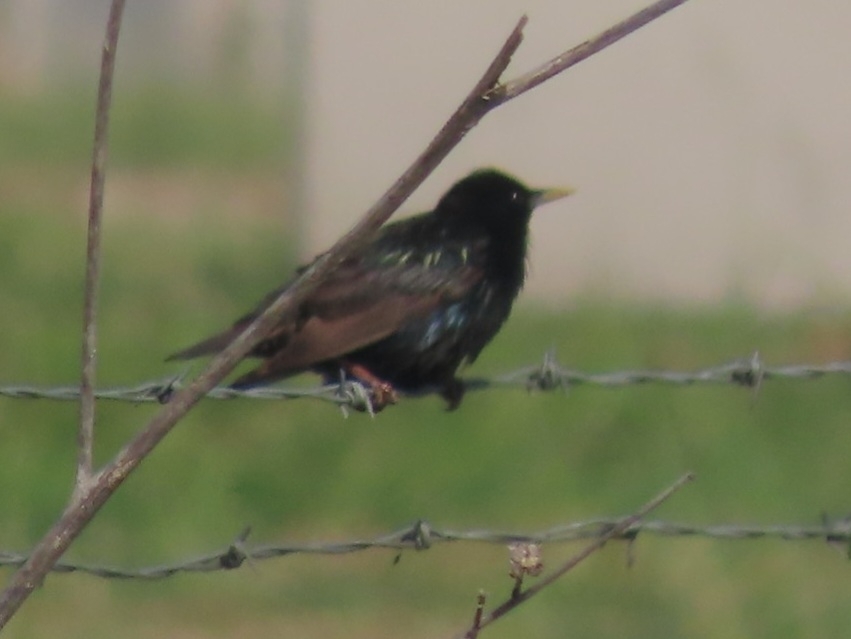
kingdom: Animalia
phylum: Chordata
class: Aves
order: Passeriformes
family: Sturnidae
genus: Sturnus
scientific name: Sturnus vulgaris
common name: Common starling
